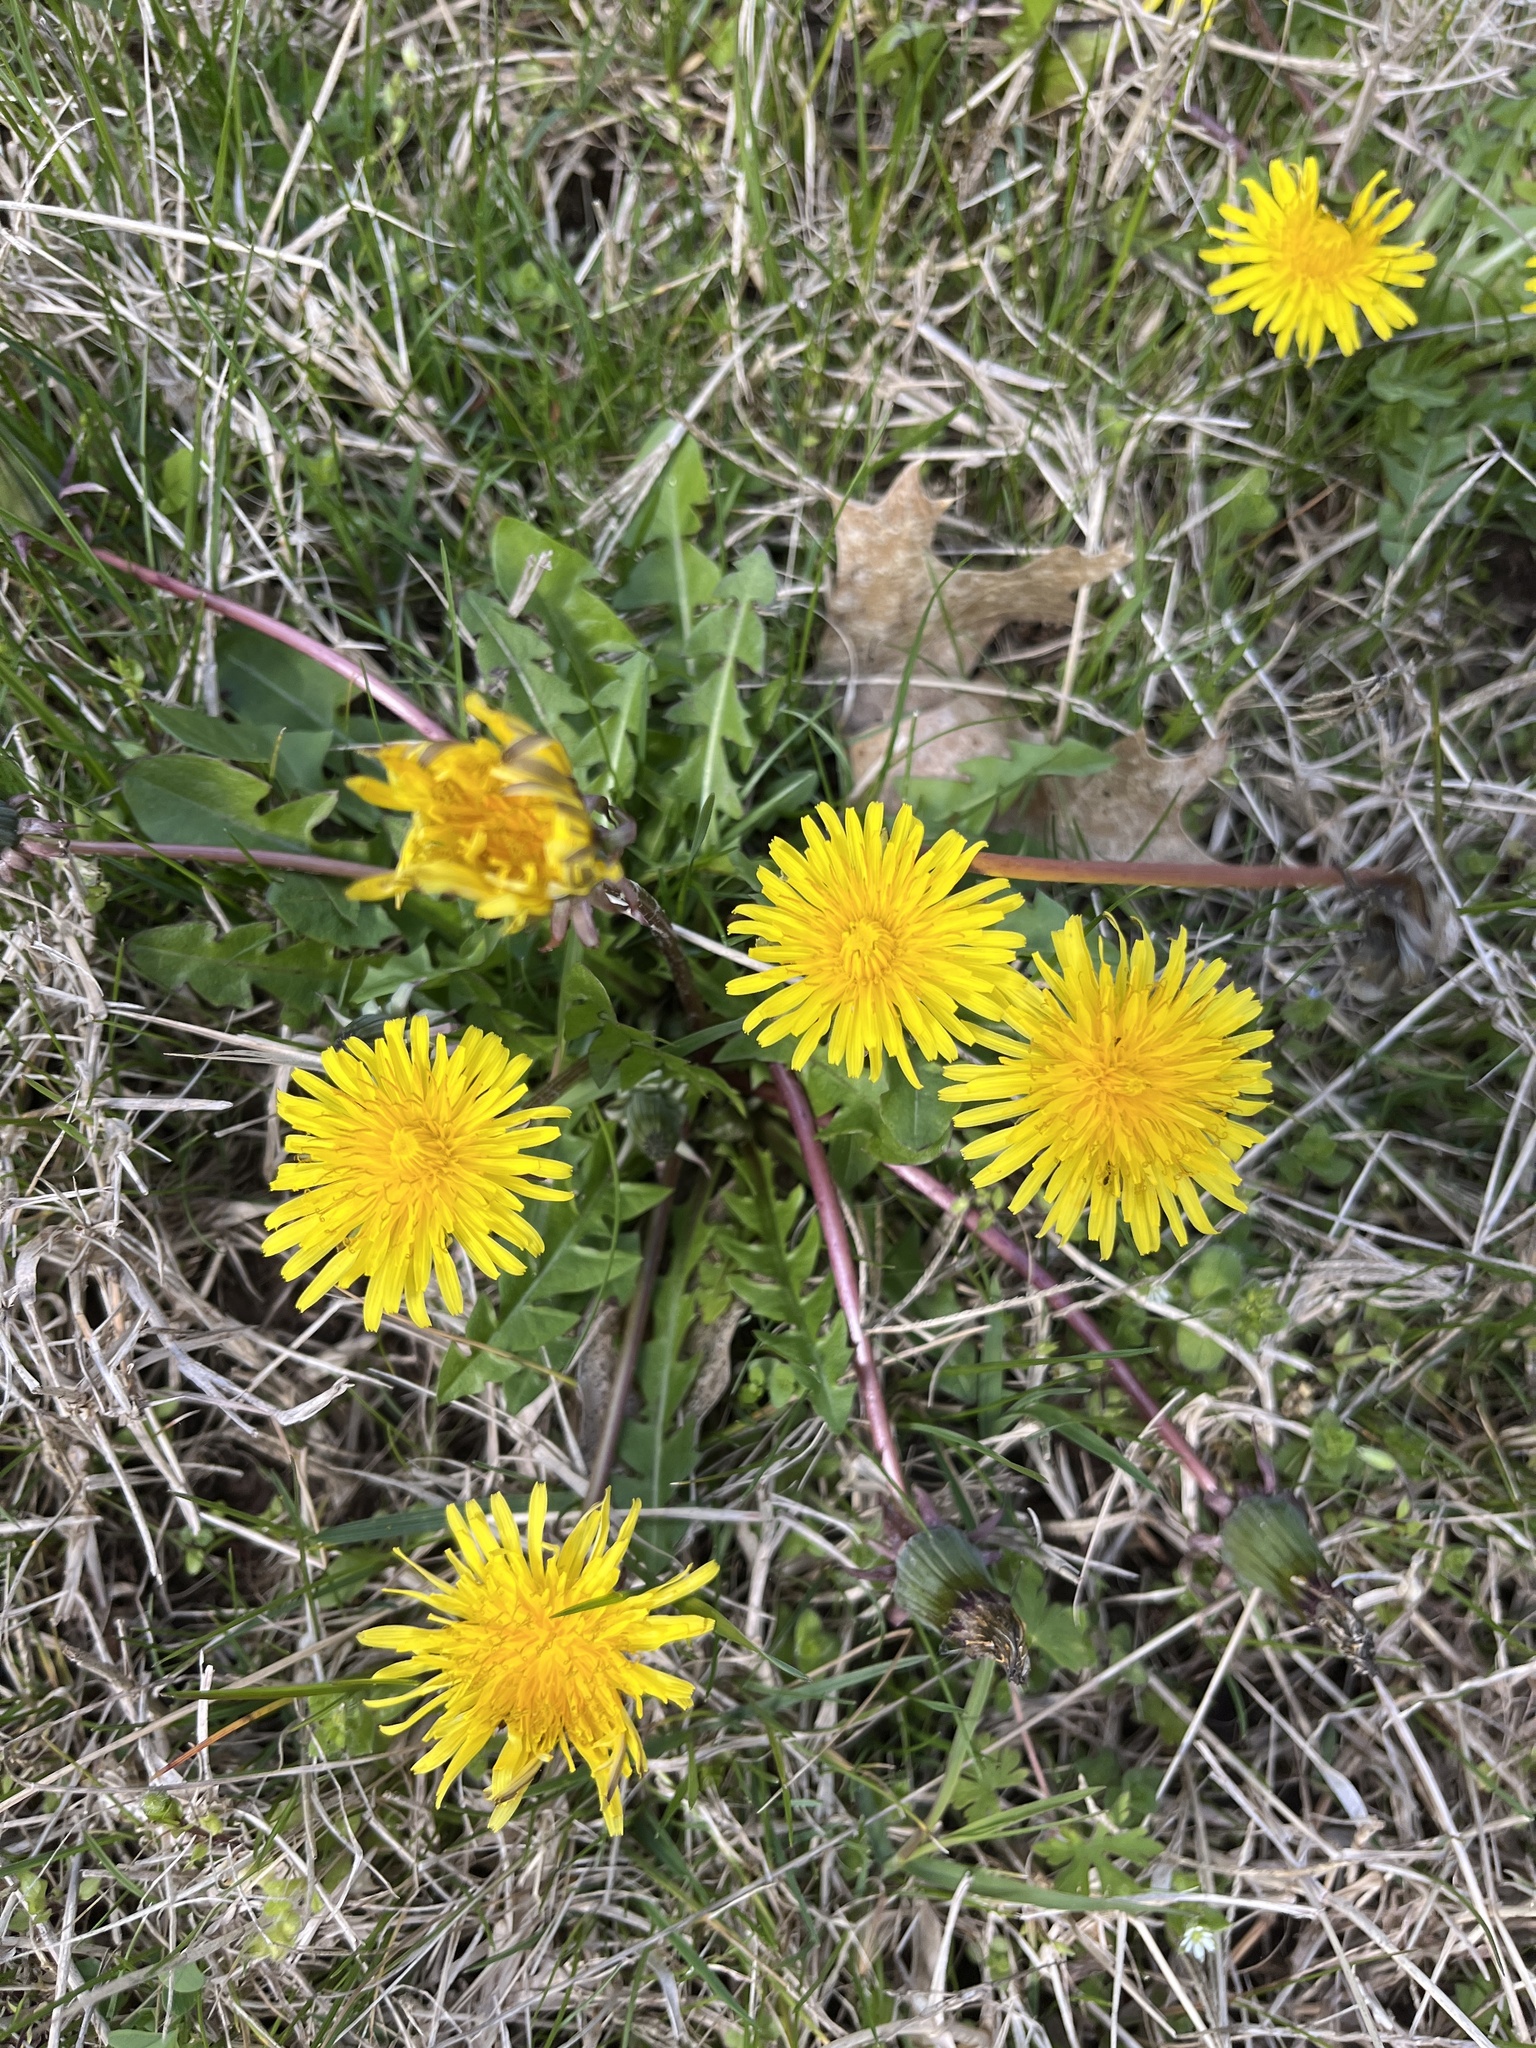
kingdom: Plantae
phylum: Tracheophyta
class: Magnoliopsida
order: Asterales
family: Asteraceae
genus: Taraxacum
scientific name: Taraxacum
